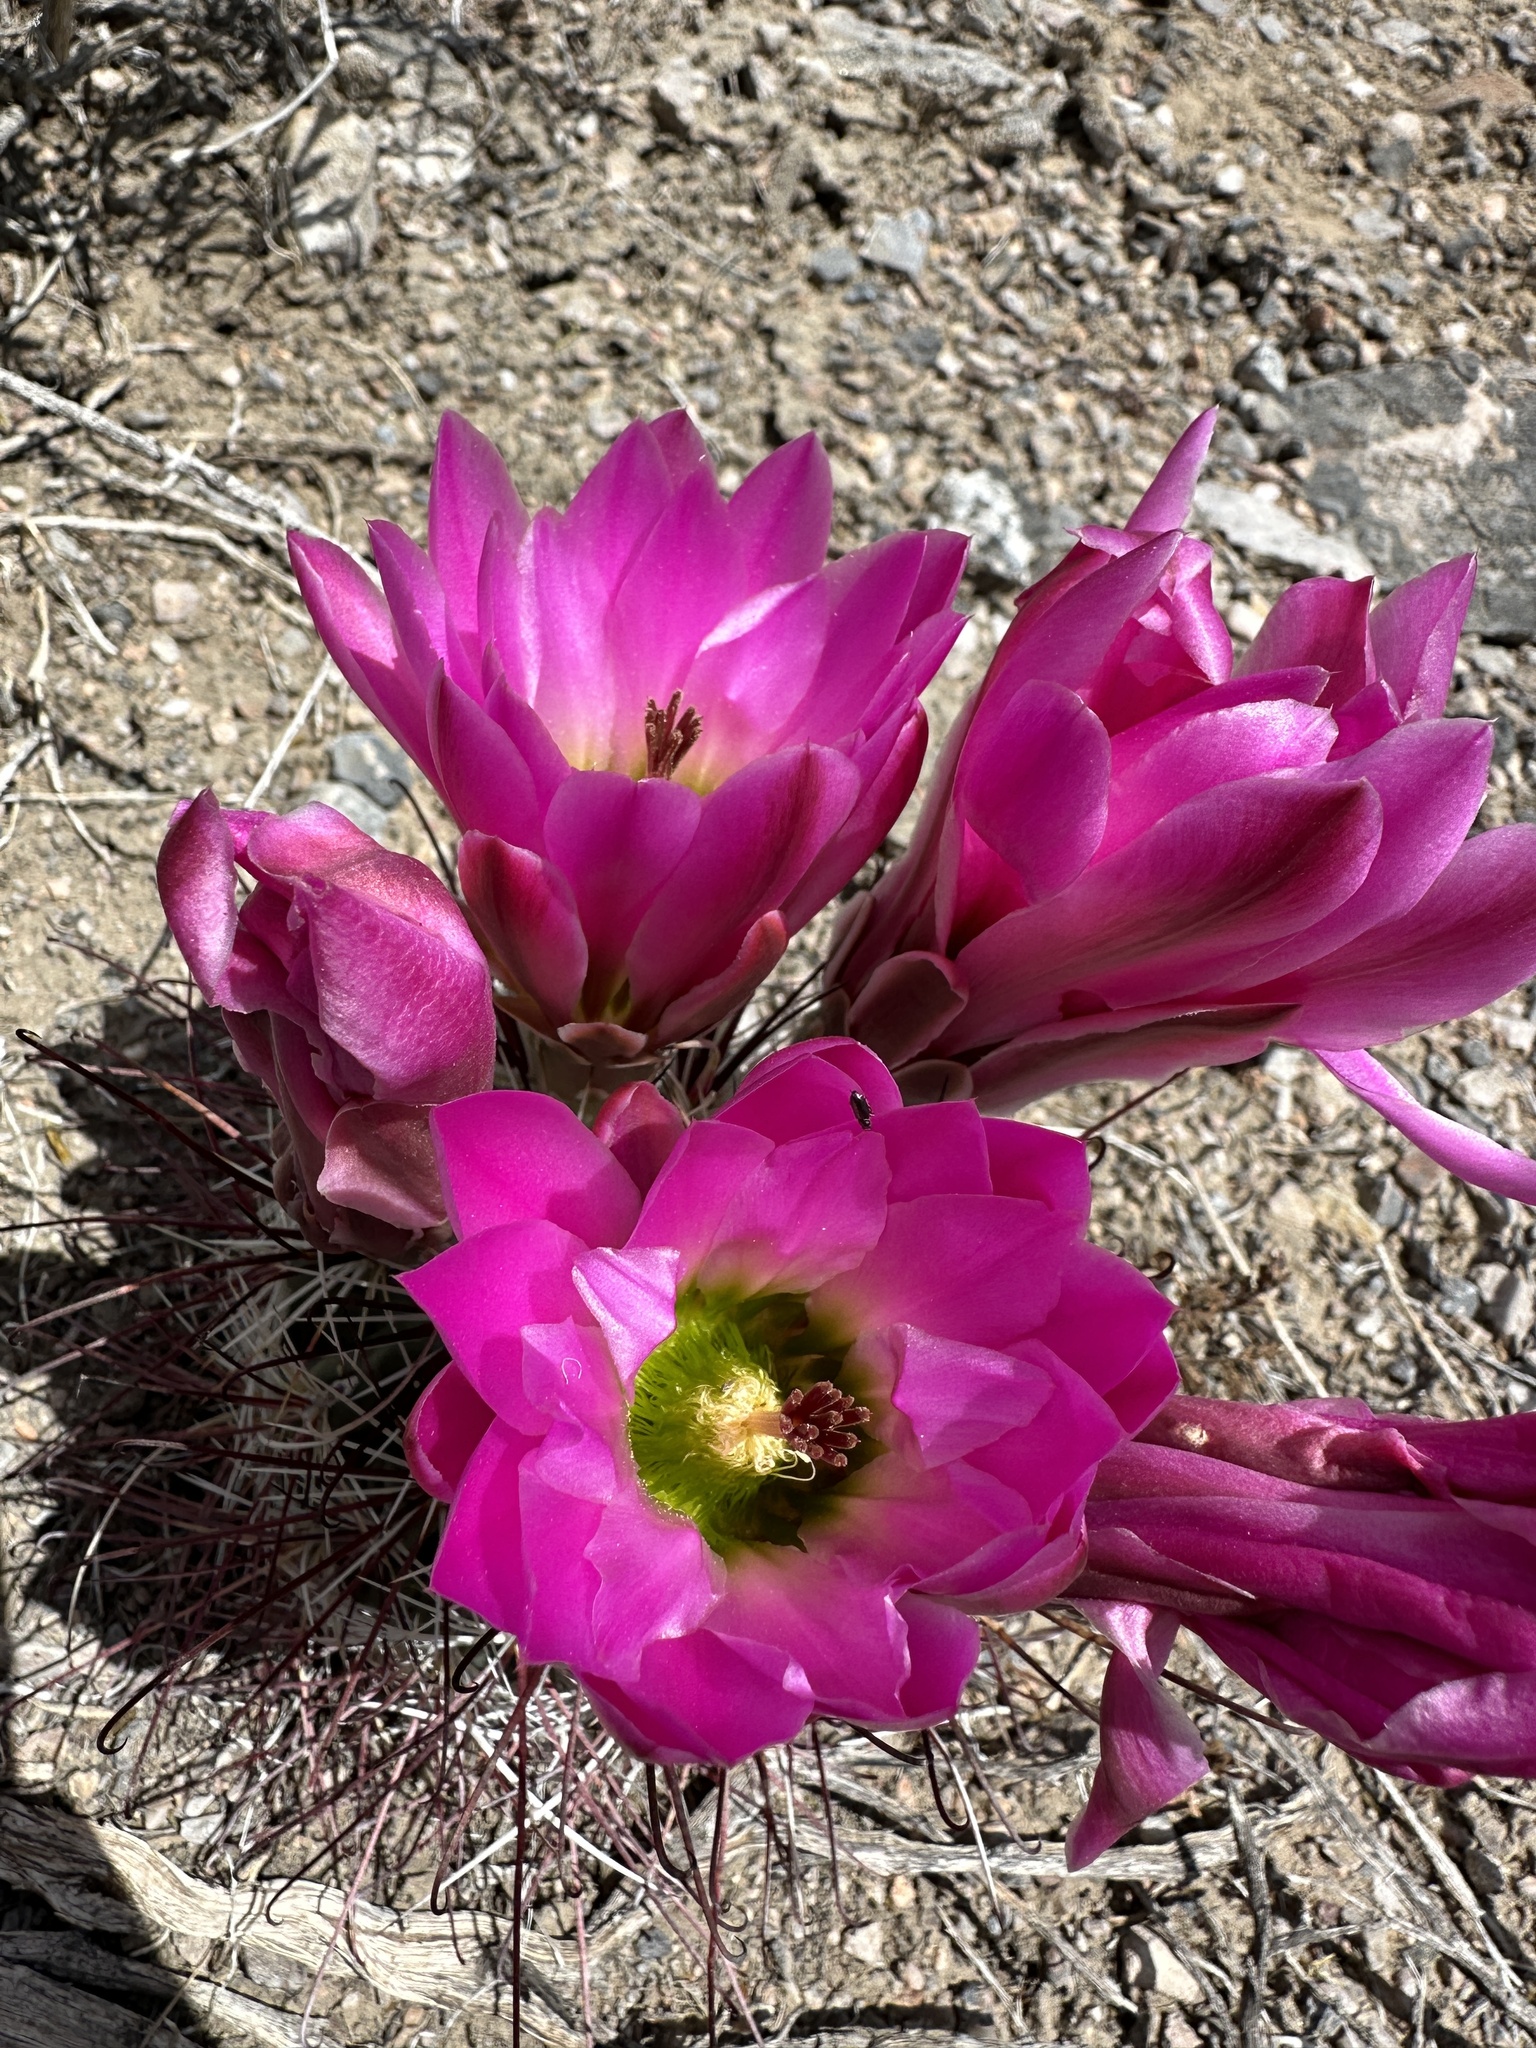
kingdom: Plantae
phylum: Tracheophyta
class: Magnoliopsida
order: Caryophyllales
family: Cactaceae
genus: Sclerocactus
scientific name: Sclerocactus polyancistrus
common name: Mohave fishhook cactus
